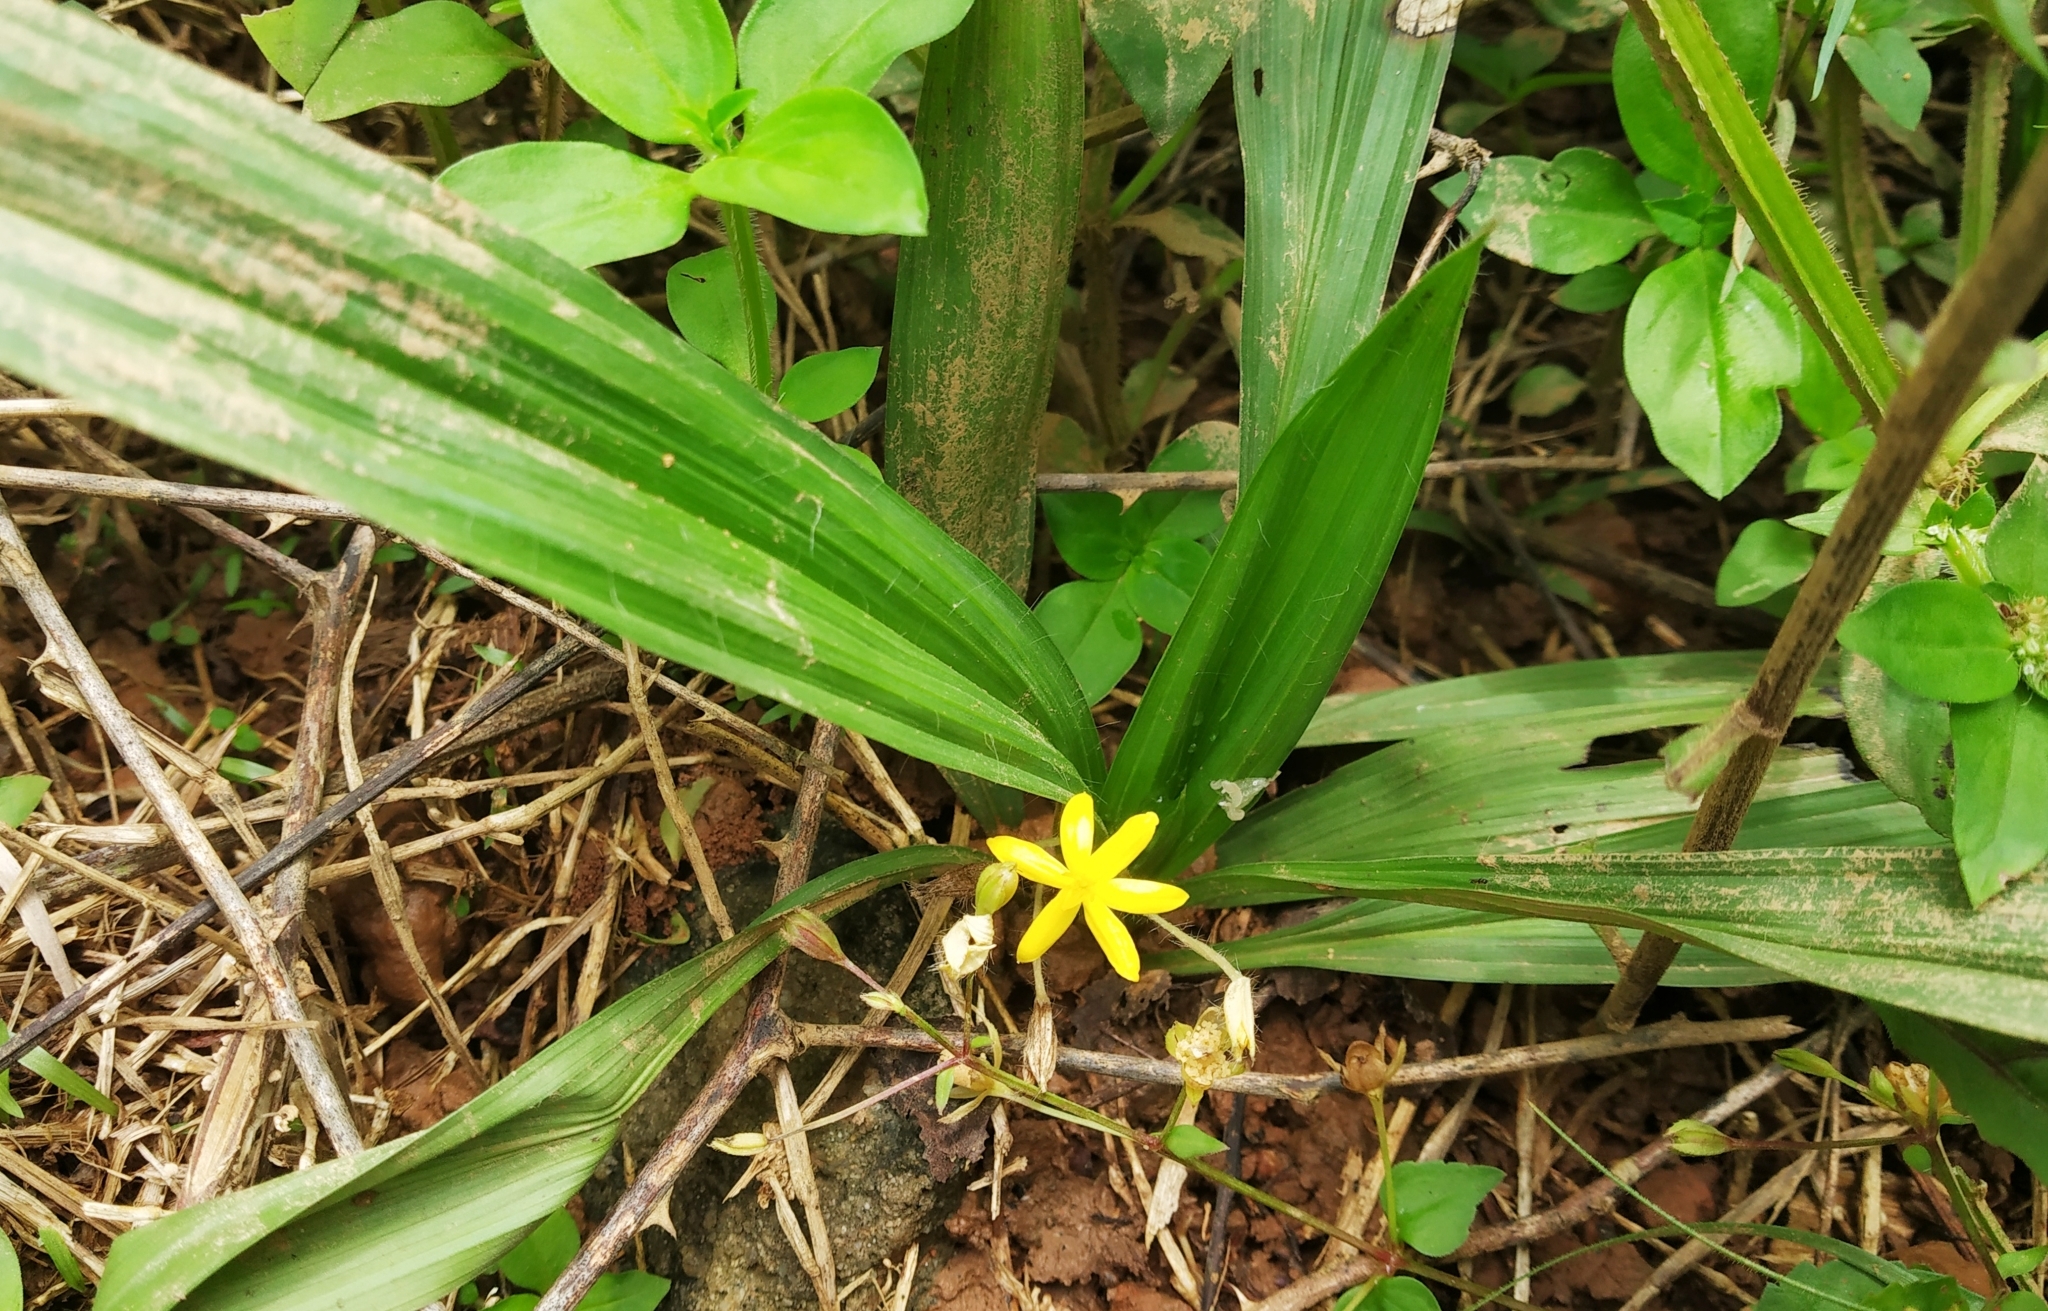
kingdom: Plantae
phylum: Tracheophyta
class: Liliopsida
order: Asparagales
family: Hypoxidaceae
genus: Curculigo
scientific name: Curculigo orchioides
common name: Golden eye-grass
